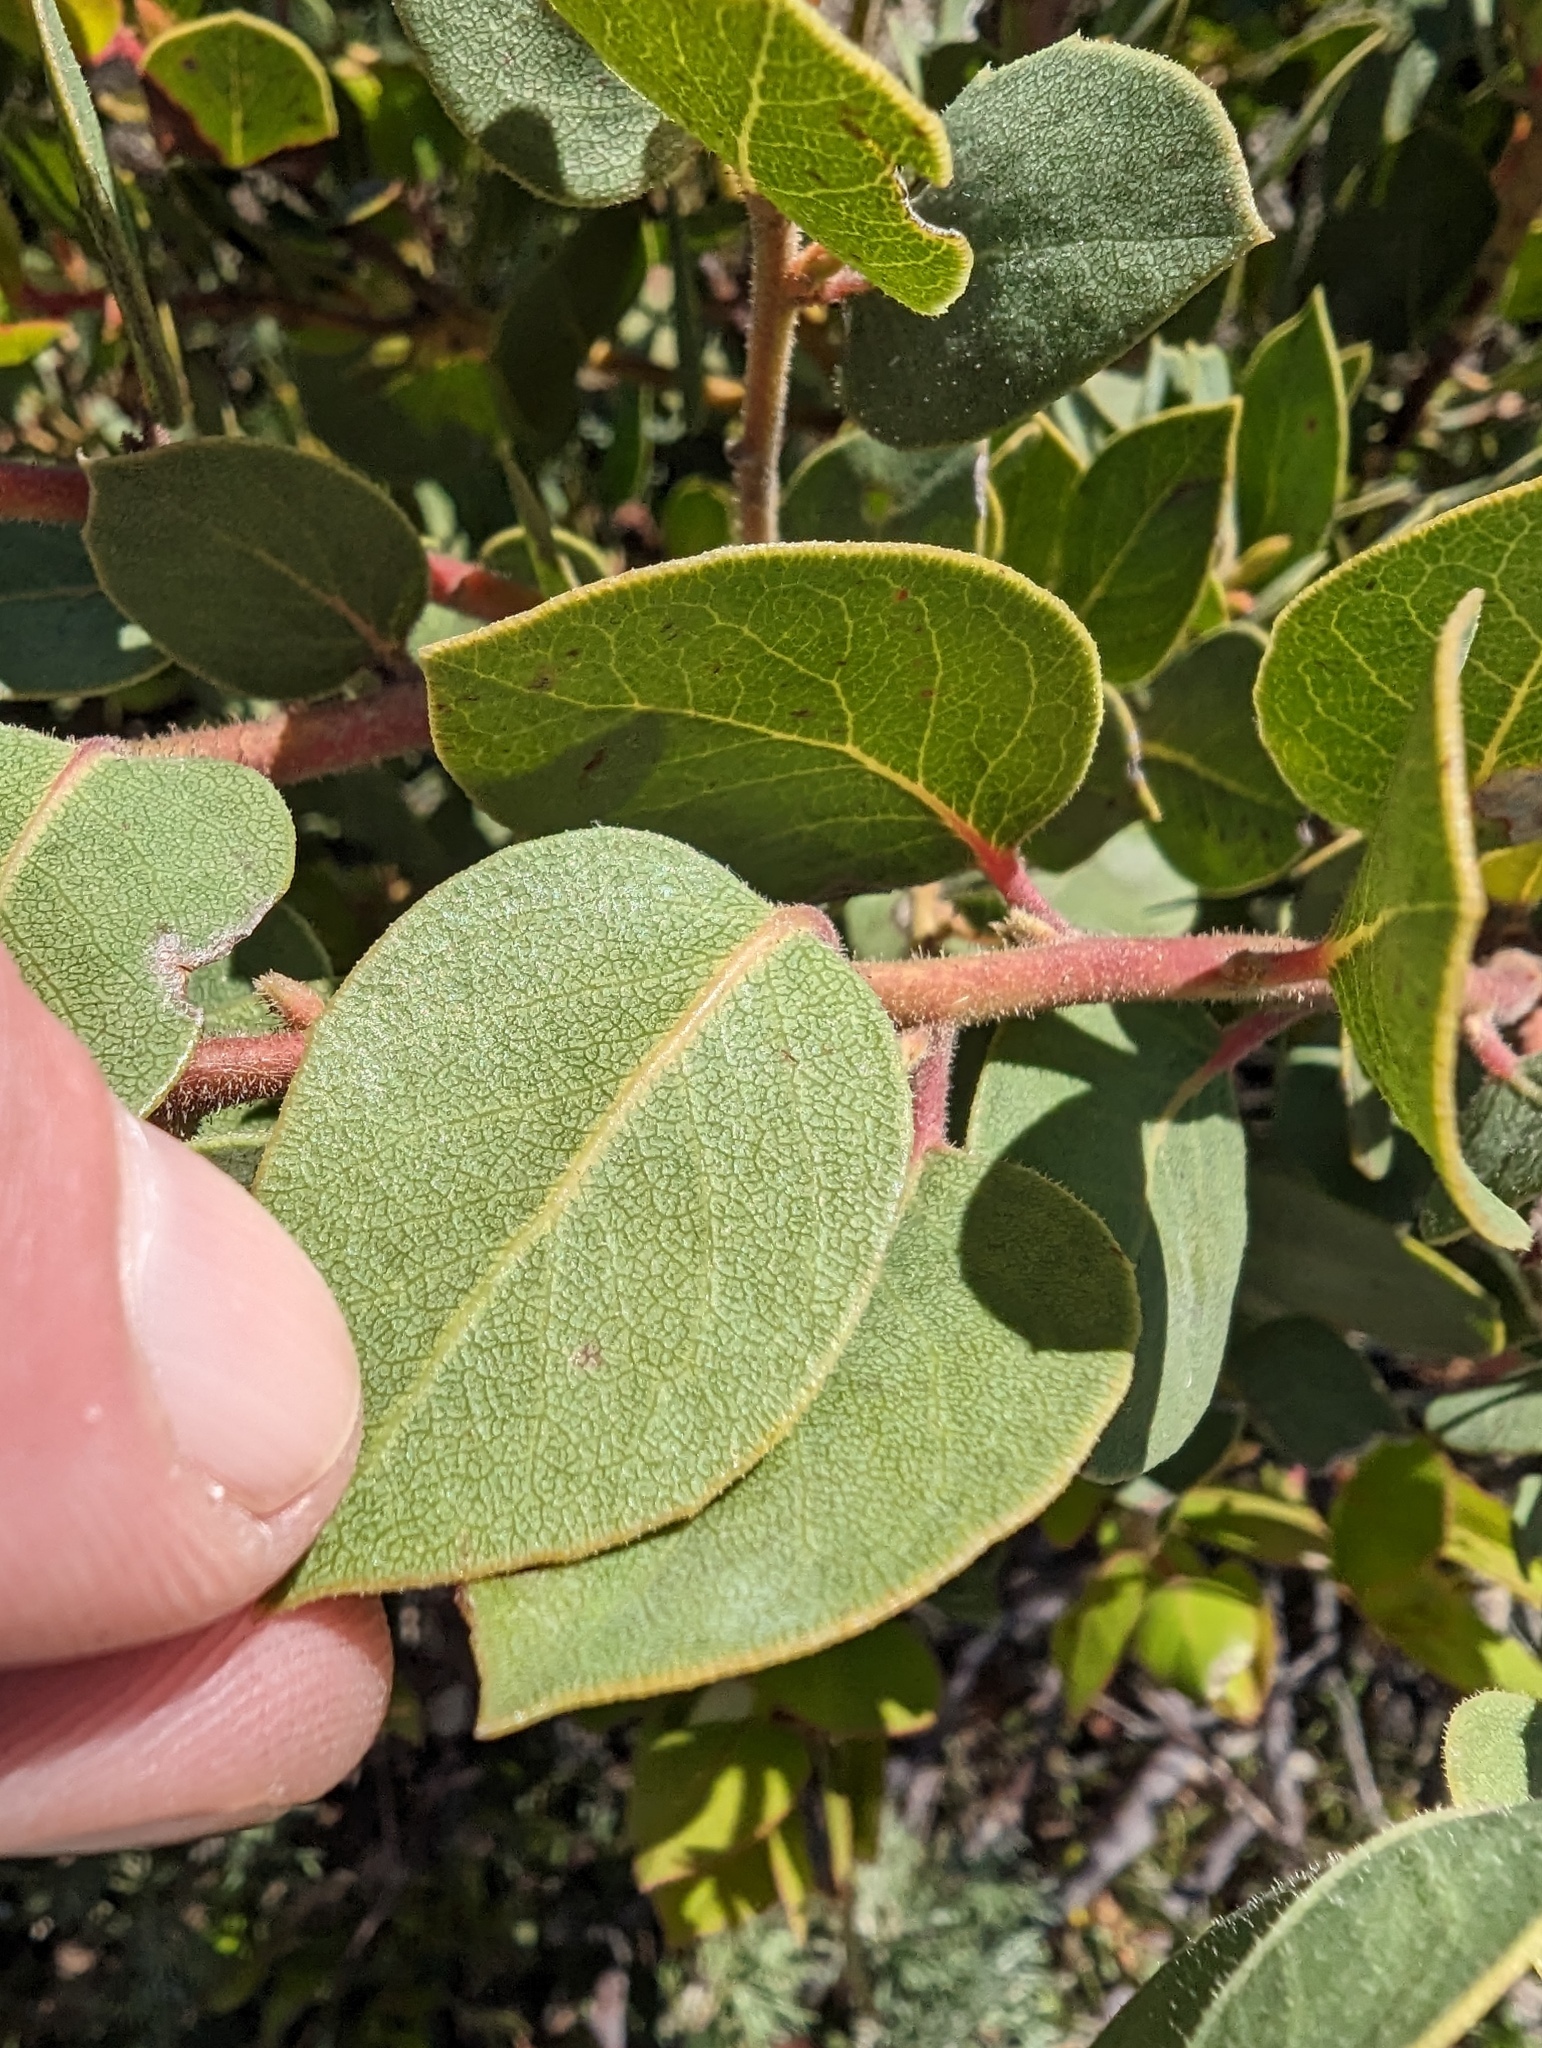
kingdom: Plantae
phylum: Tracheophyta
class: Magnoliopsida
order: Ericales
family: Ericaceae
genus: Arctostaphylos
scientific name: Arctostaphylos montereyensis
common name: Monterey manzanita
